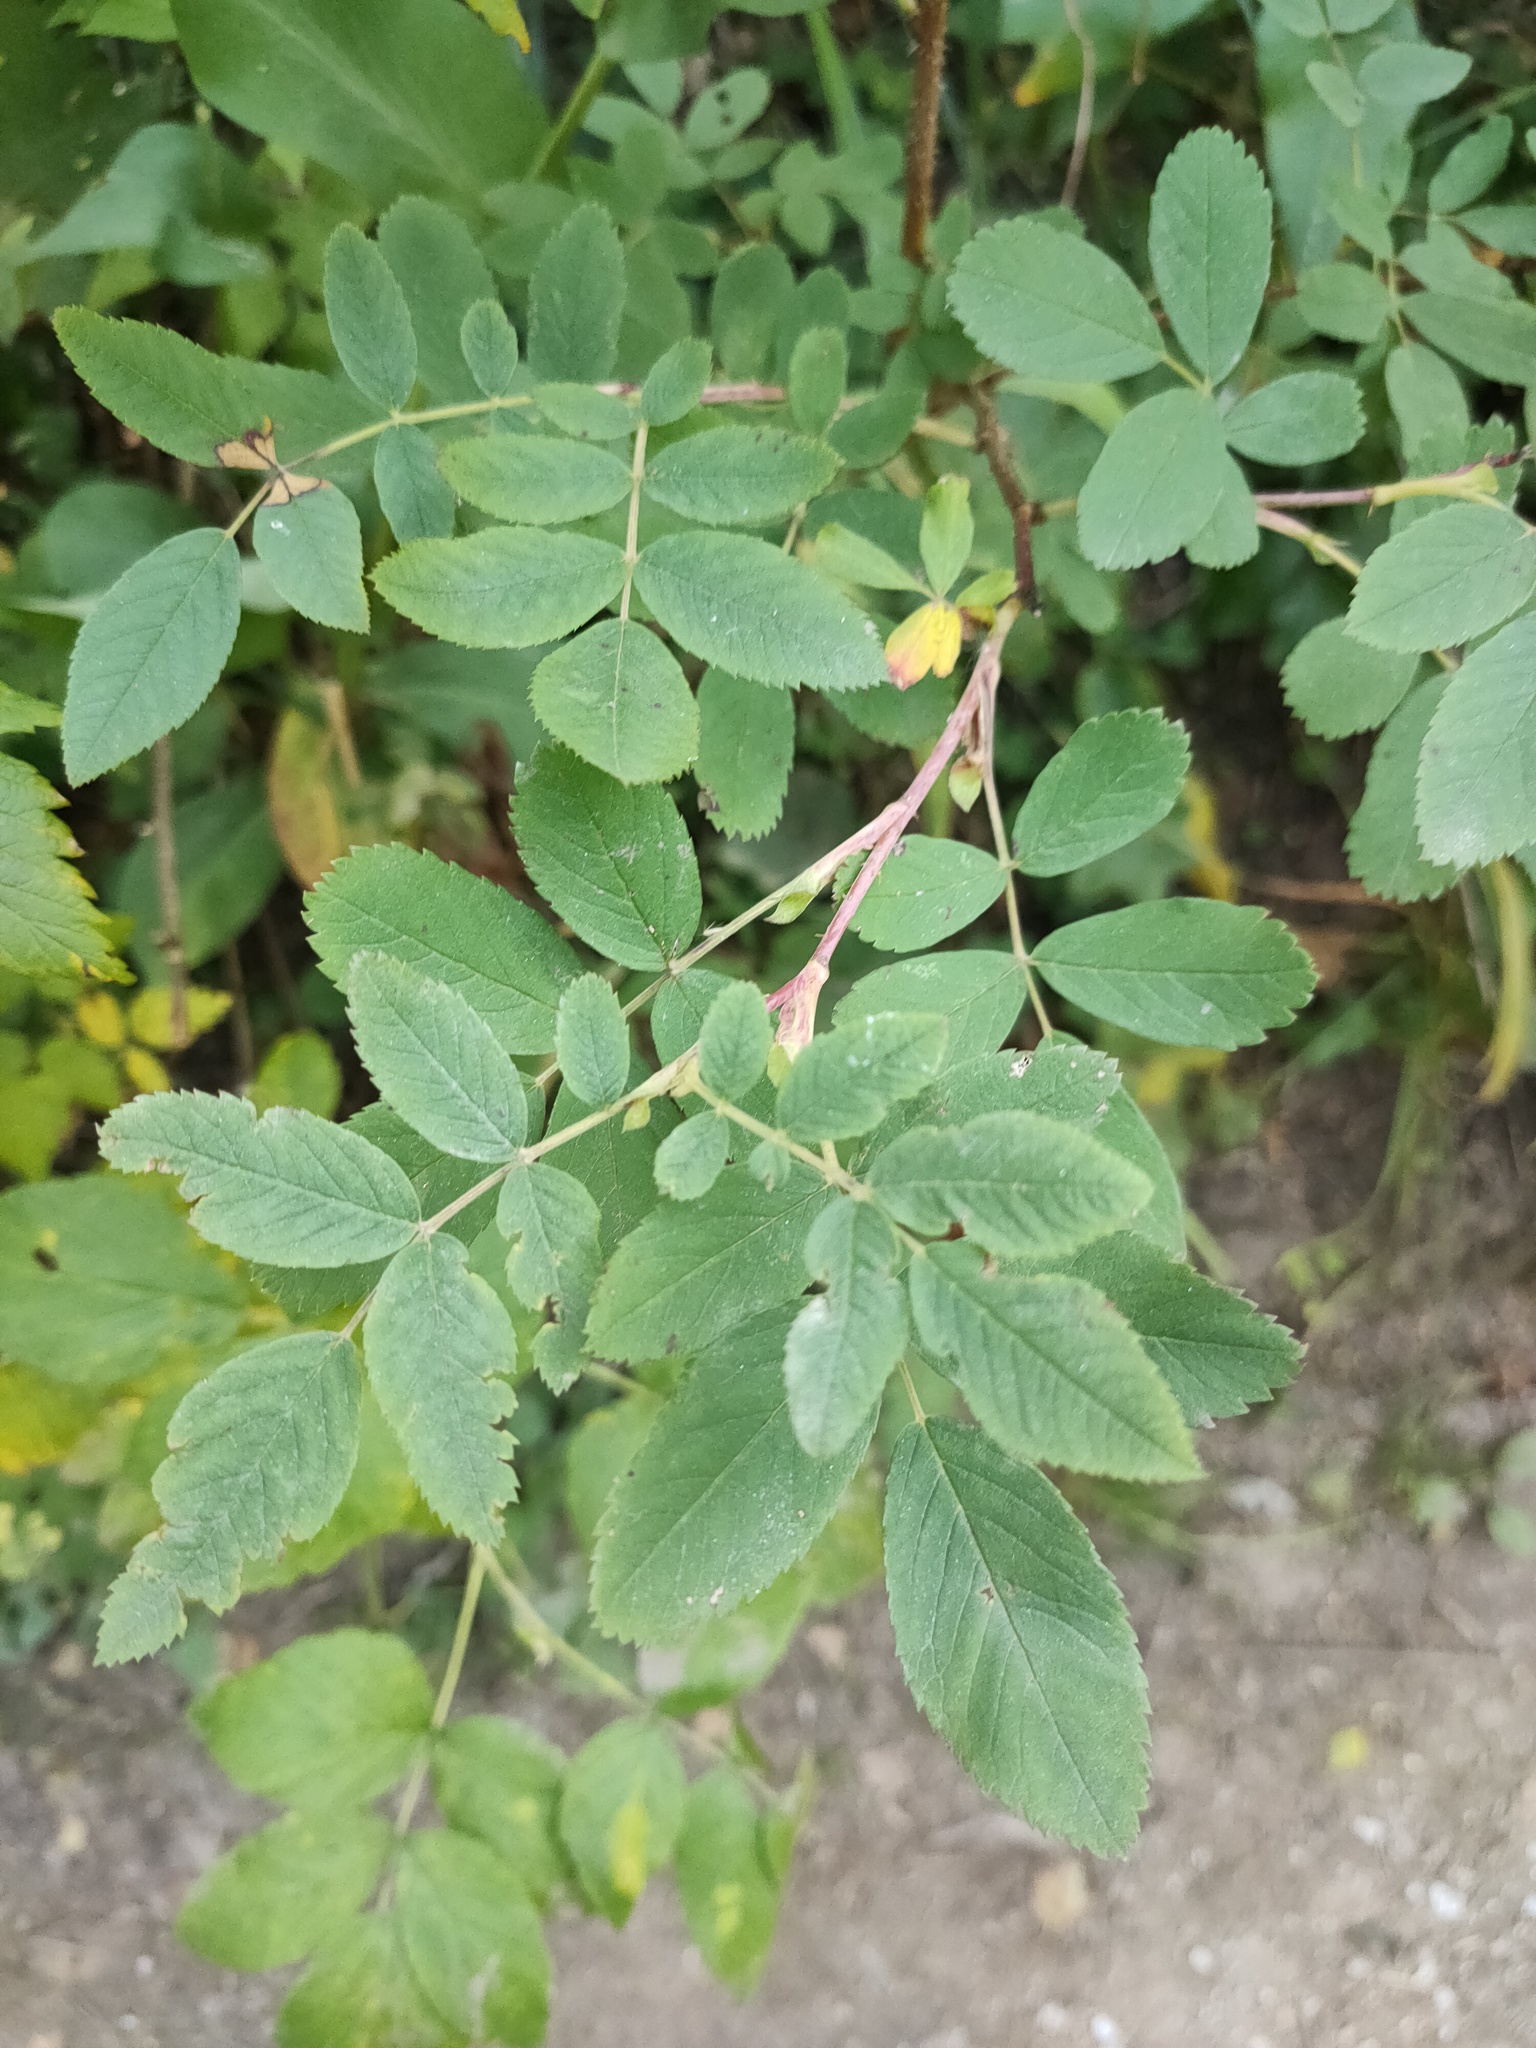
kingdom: Plantae
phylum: Tracheophyta
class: Magnoliopsida
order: Rosales
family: Rosaceae
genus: Rosa
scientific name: Rosa
